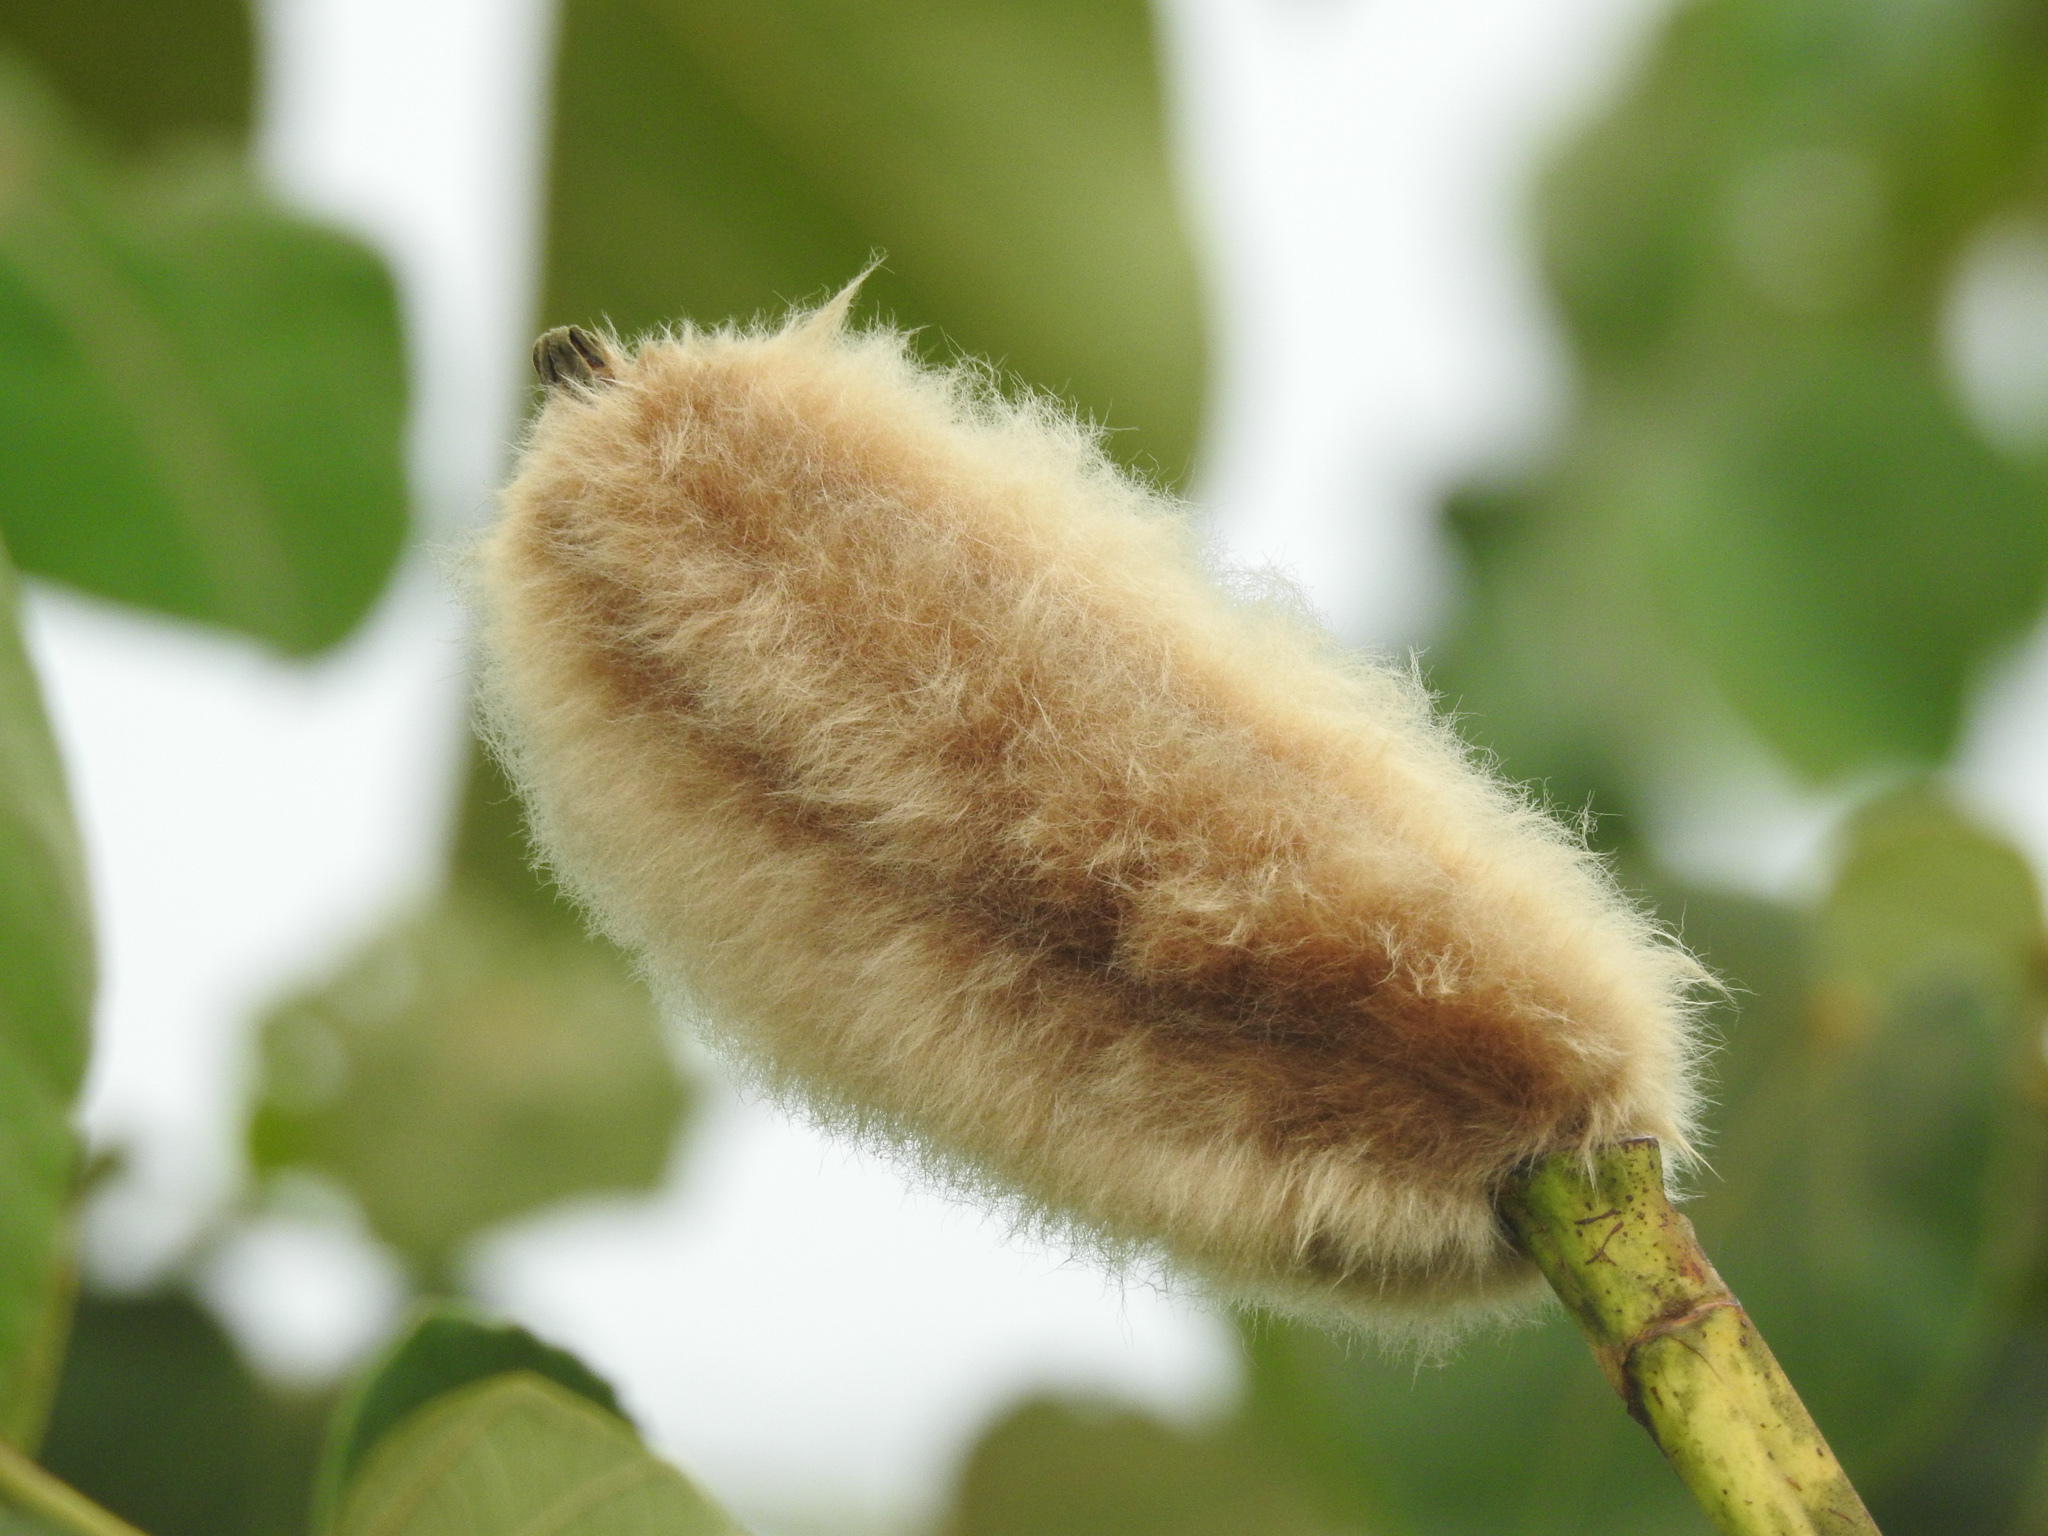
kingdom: Plantae
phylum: Tracheophyta
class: Magnoliopsida
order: Malvales
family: Malvaceae
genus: Ochroma
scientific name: Ochroma pyramidale
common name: Balsa
